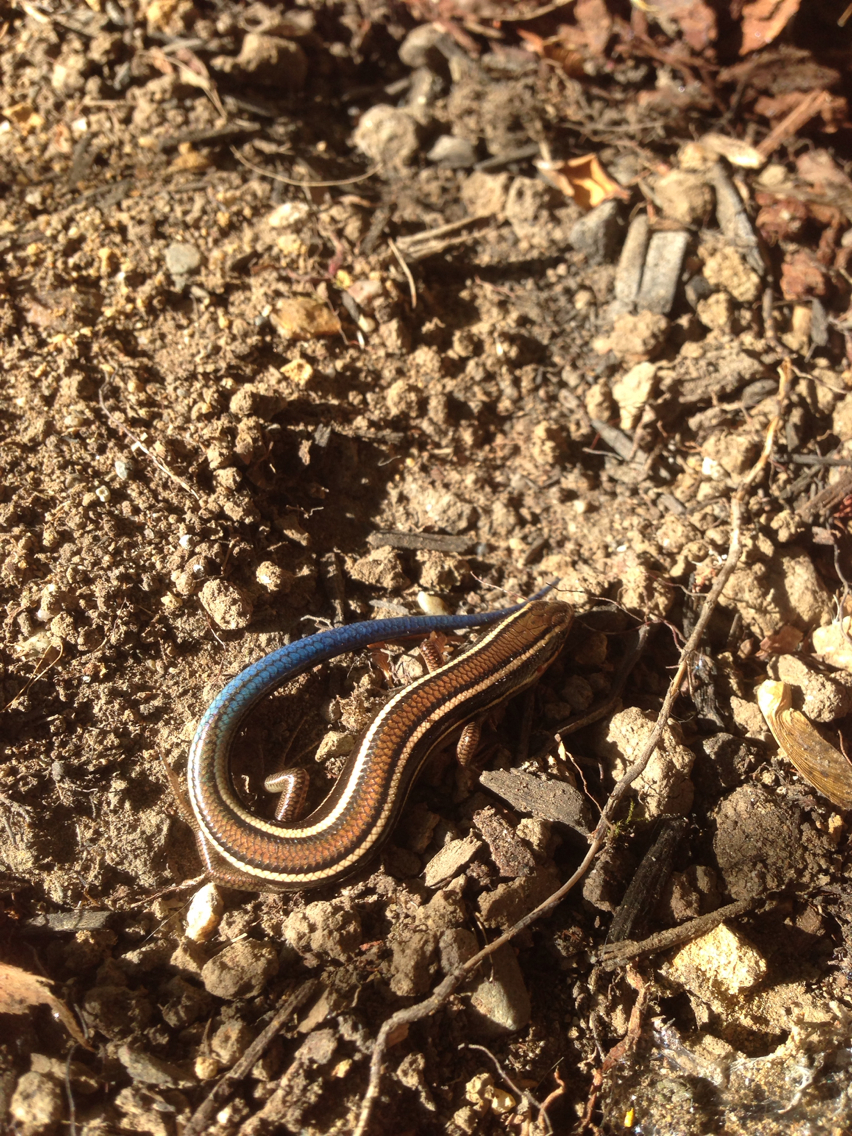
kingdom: Animalia
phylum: Chordata
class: Squamata
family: Scincidae
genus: Plestiodon
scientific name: Plestiodon skiltonianus
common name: Coronado island skink [interparietalis]
